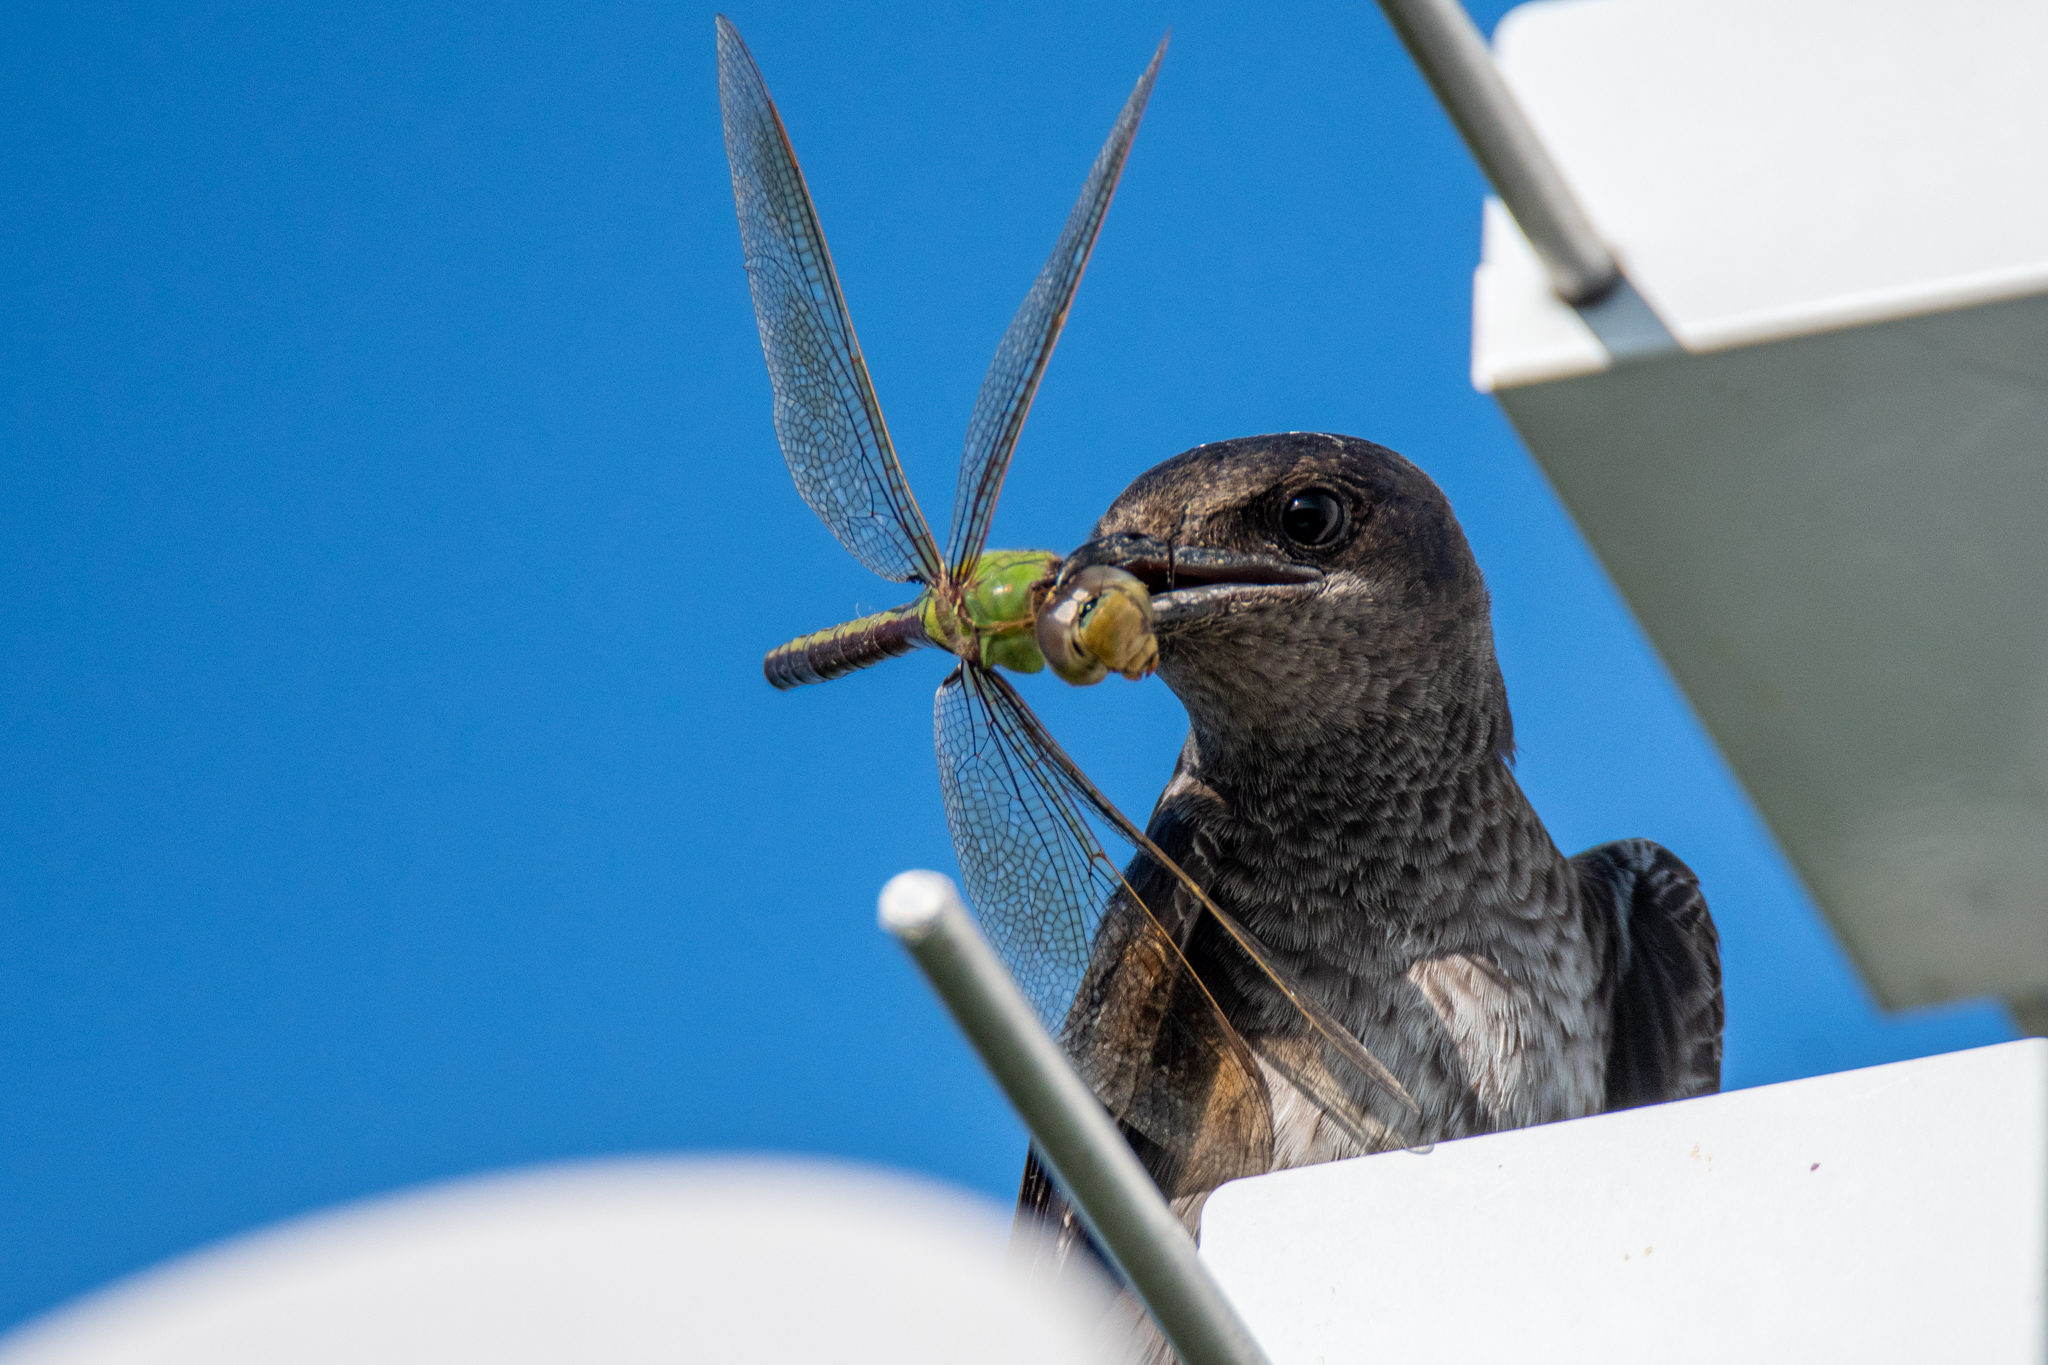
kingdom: Animalia
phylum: Arthropoda
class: Insecta
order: Odonata
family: Aeshnidae
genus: Anax
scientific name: Anax junius
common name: Common green darner
